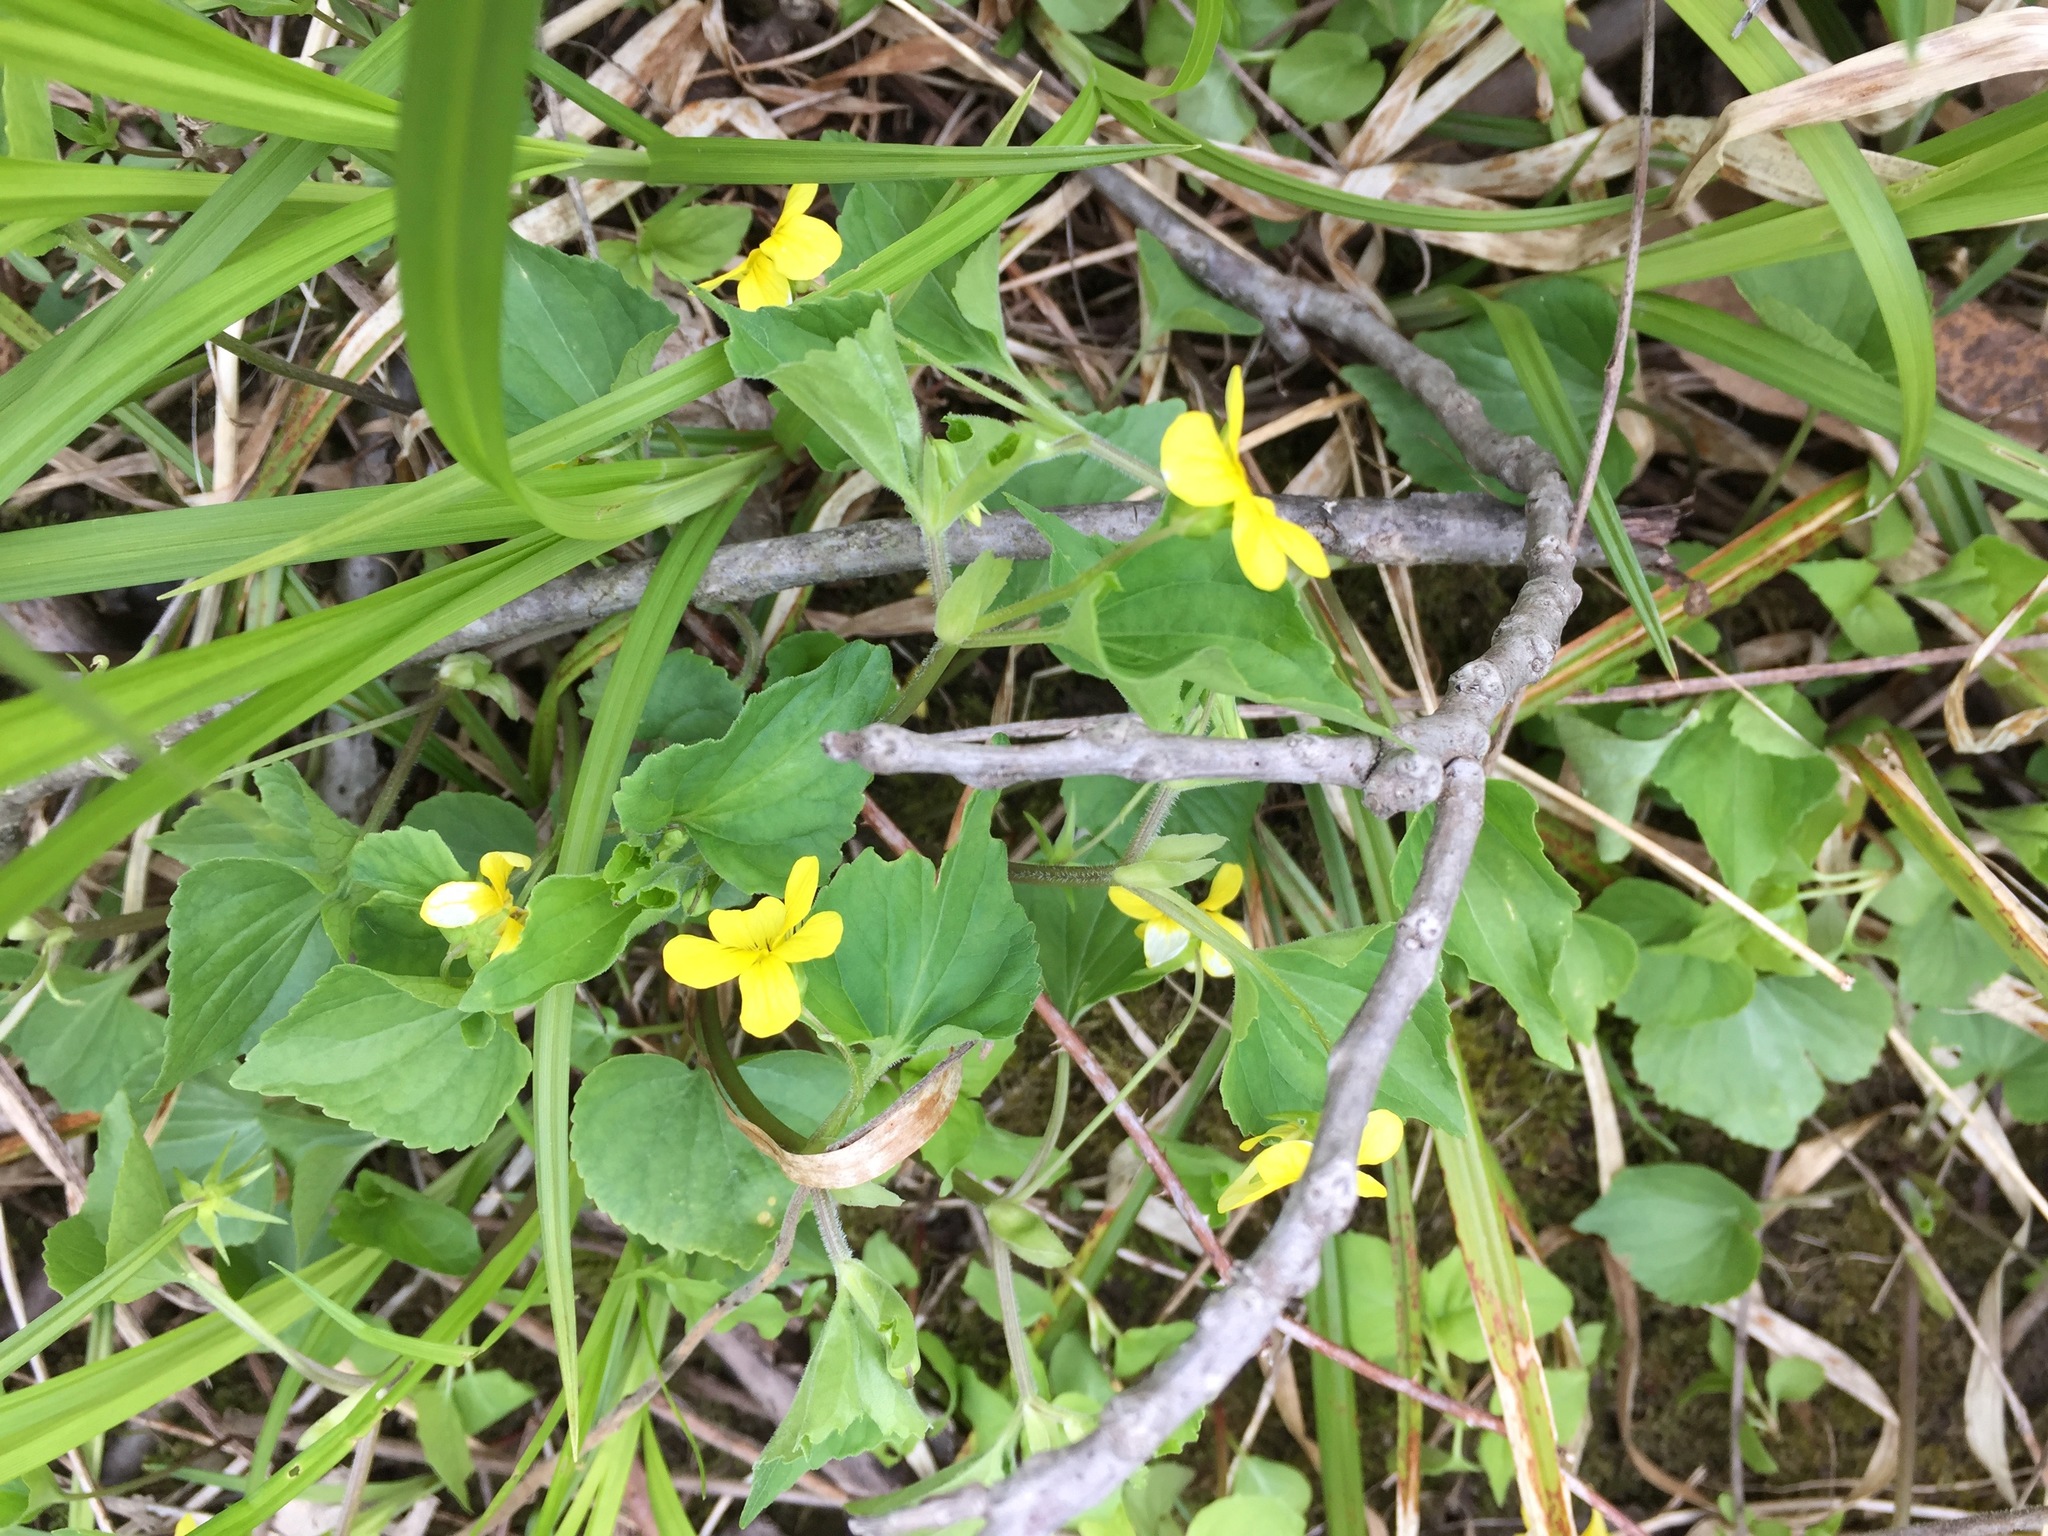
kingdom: Plantae
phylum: Tracheophyta
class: Magnoliopsida
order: Malpighiales
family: Violaceae
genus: Viola
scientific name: Viola eriocarpa
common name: Smooth yellow violet
